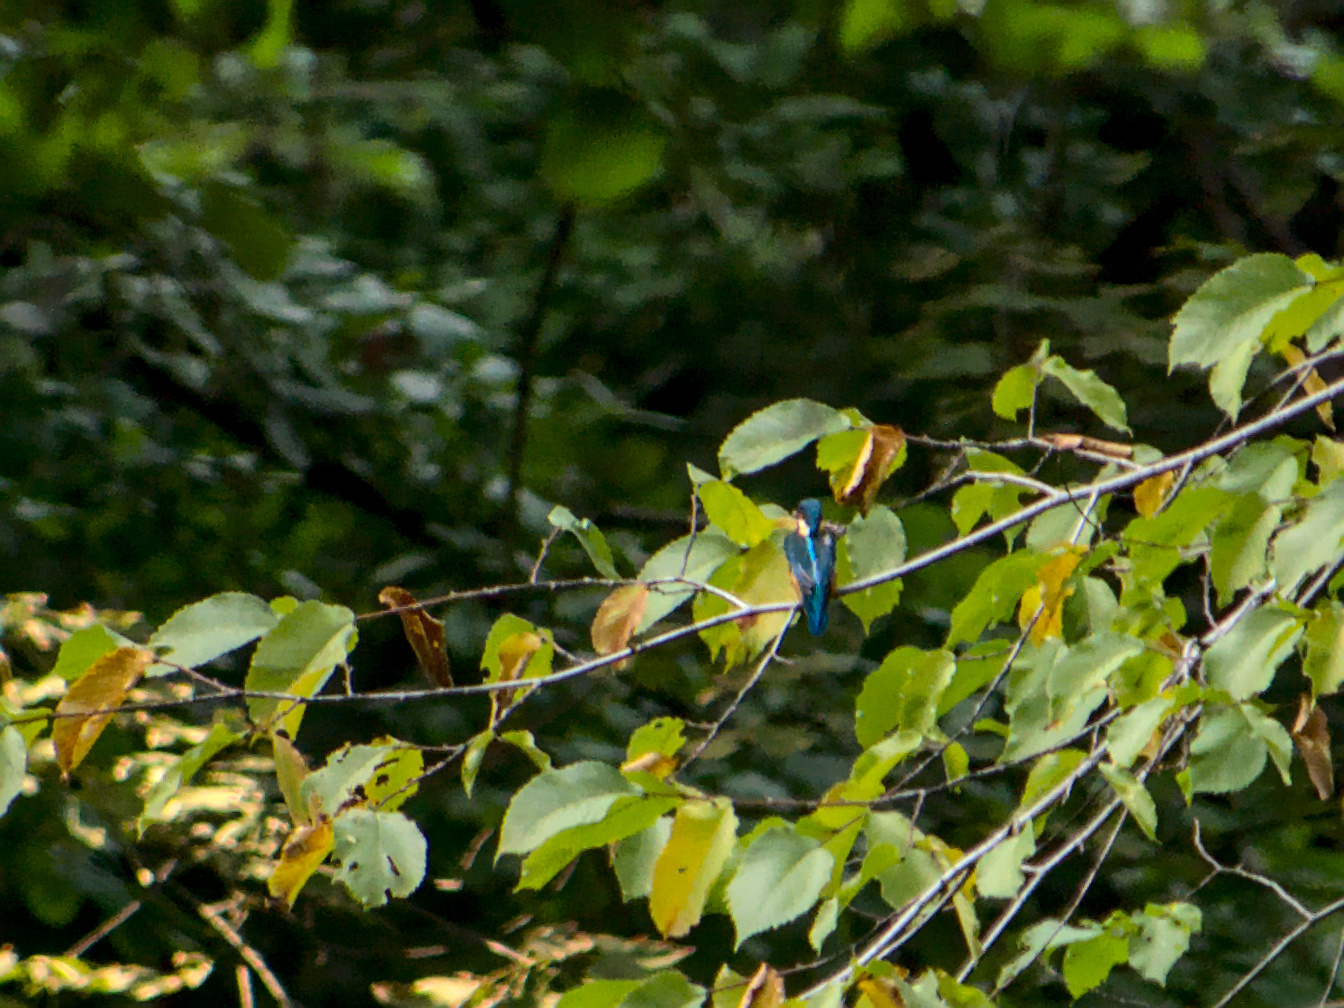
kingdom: Animalia
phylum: Chordata
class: Aves
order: Coraciiformes
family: Alcedinidae
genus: Alcedo
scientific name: Alcedo atthis
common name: Common kingfisher
